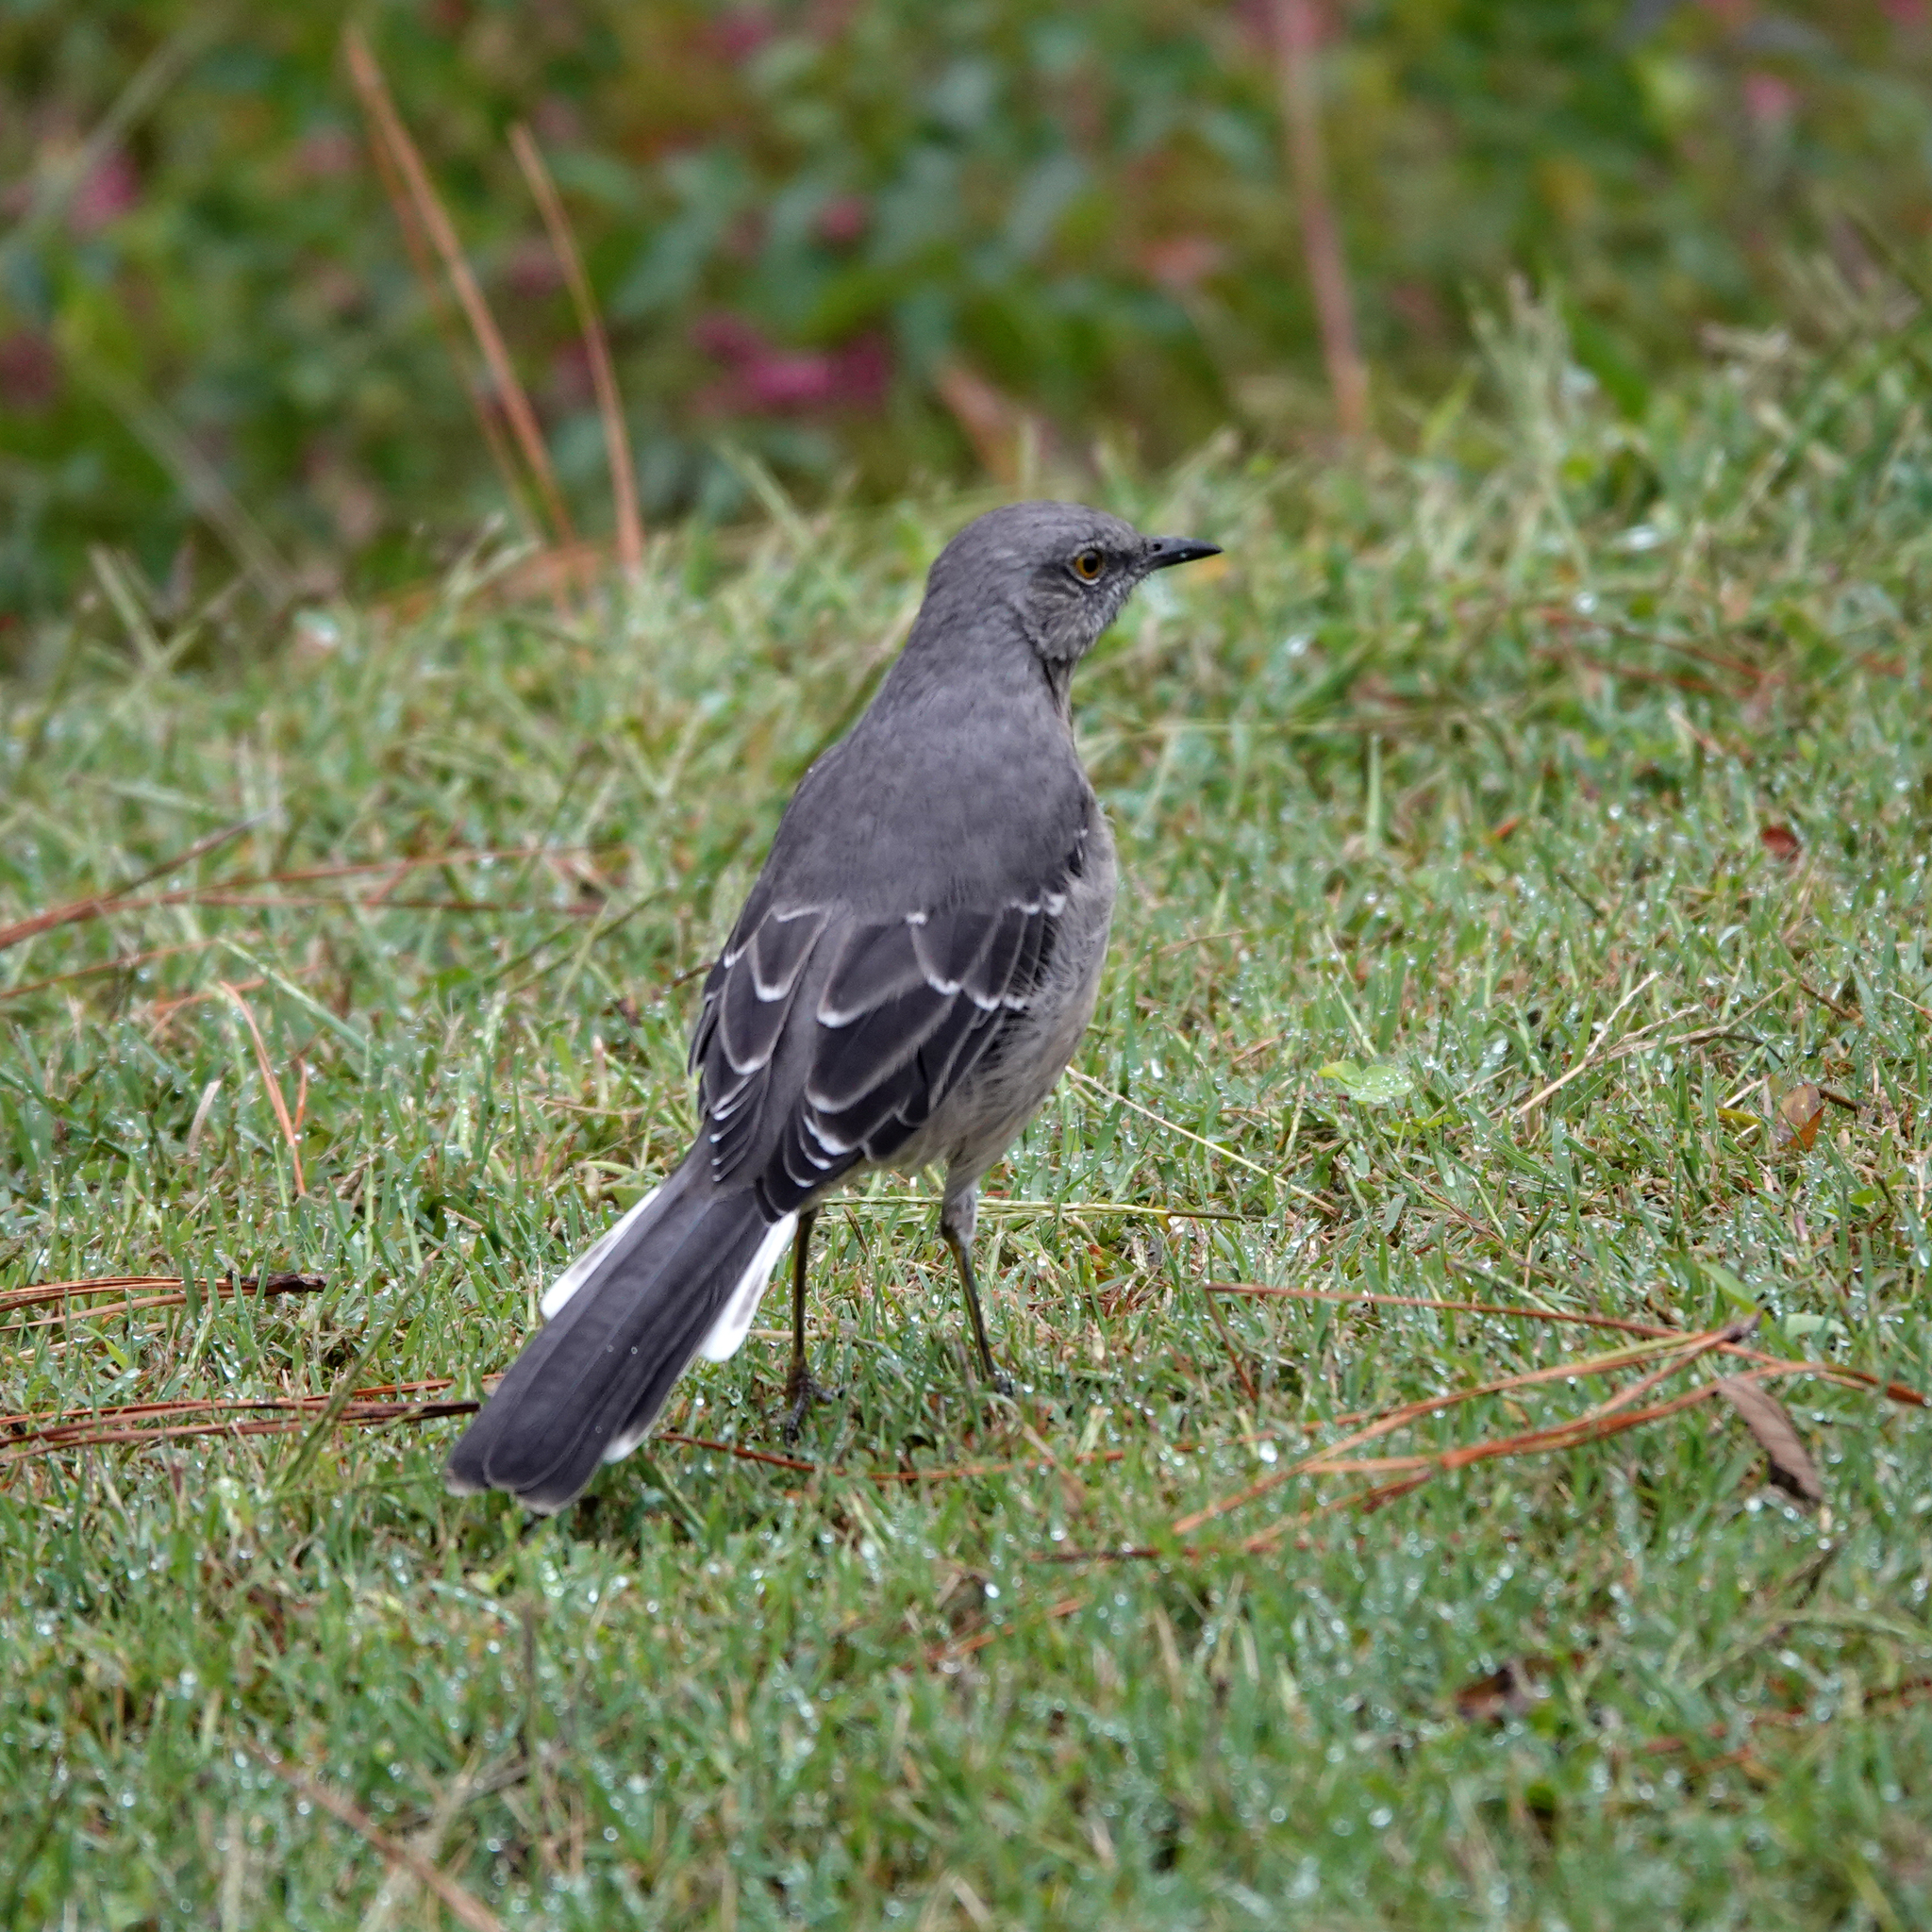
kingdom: Animalia
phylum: Chordata
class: Aves
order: Passeriformes
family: Mimidae
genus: Mimus
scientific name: Mimus polyglottos
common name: Northern mockingbird
